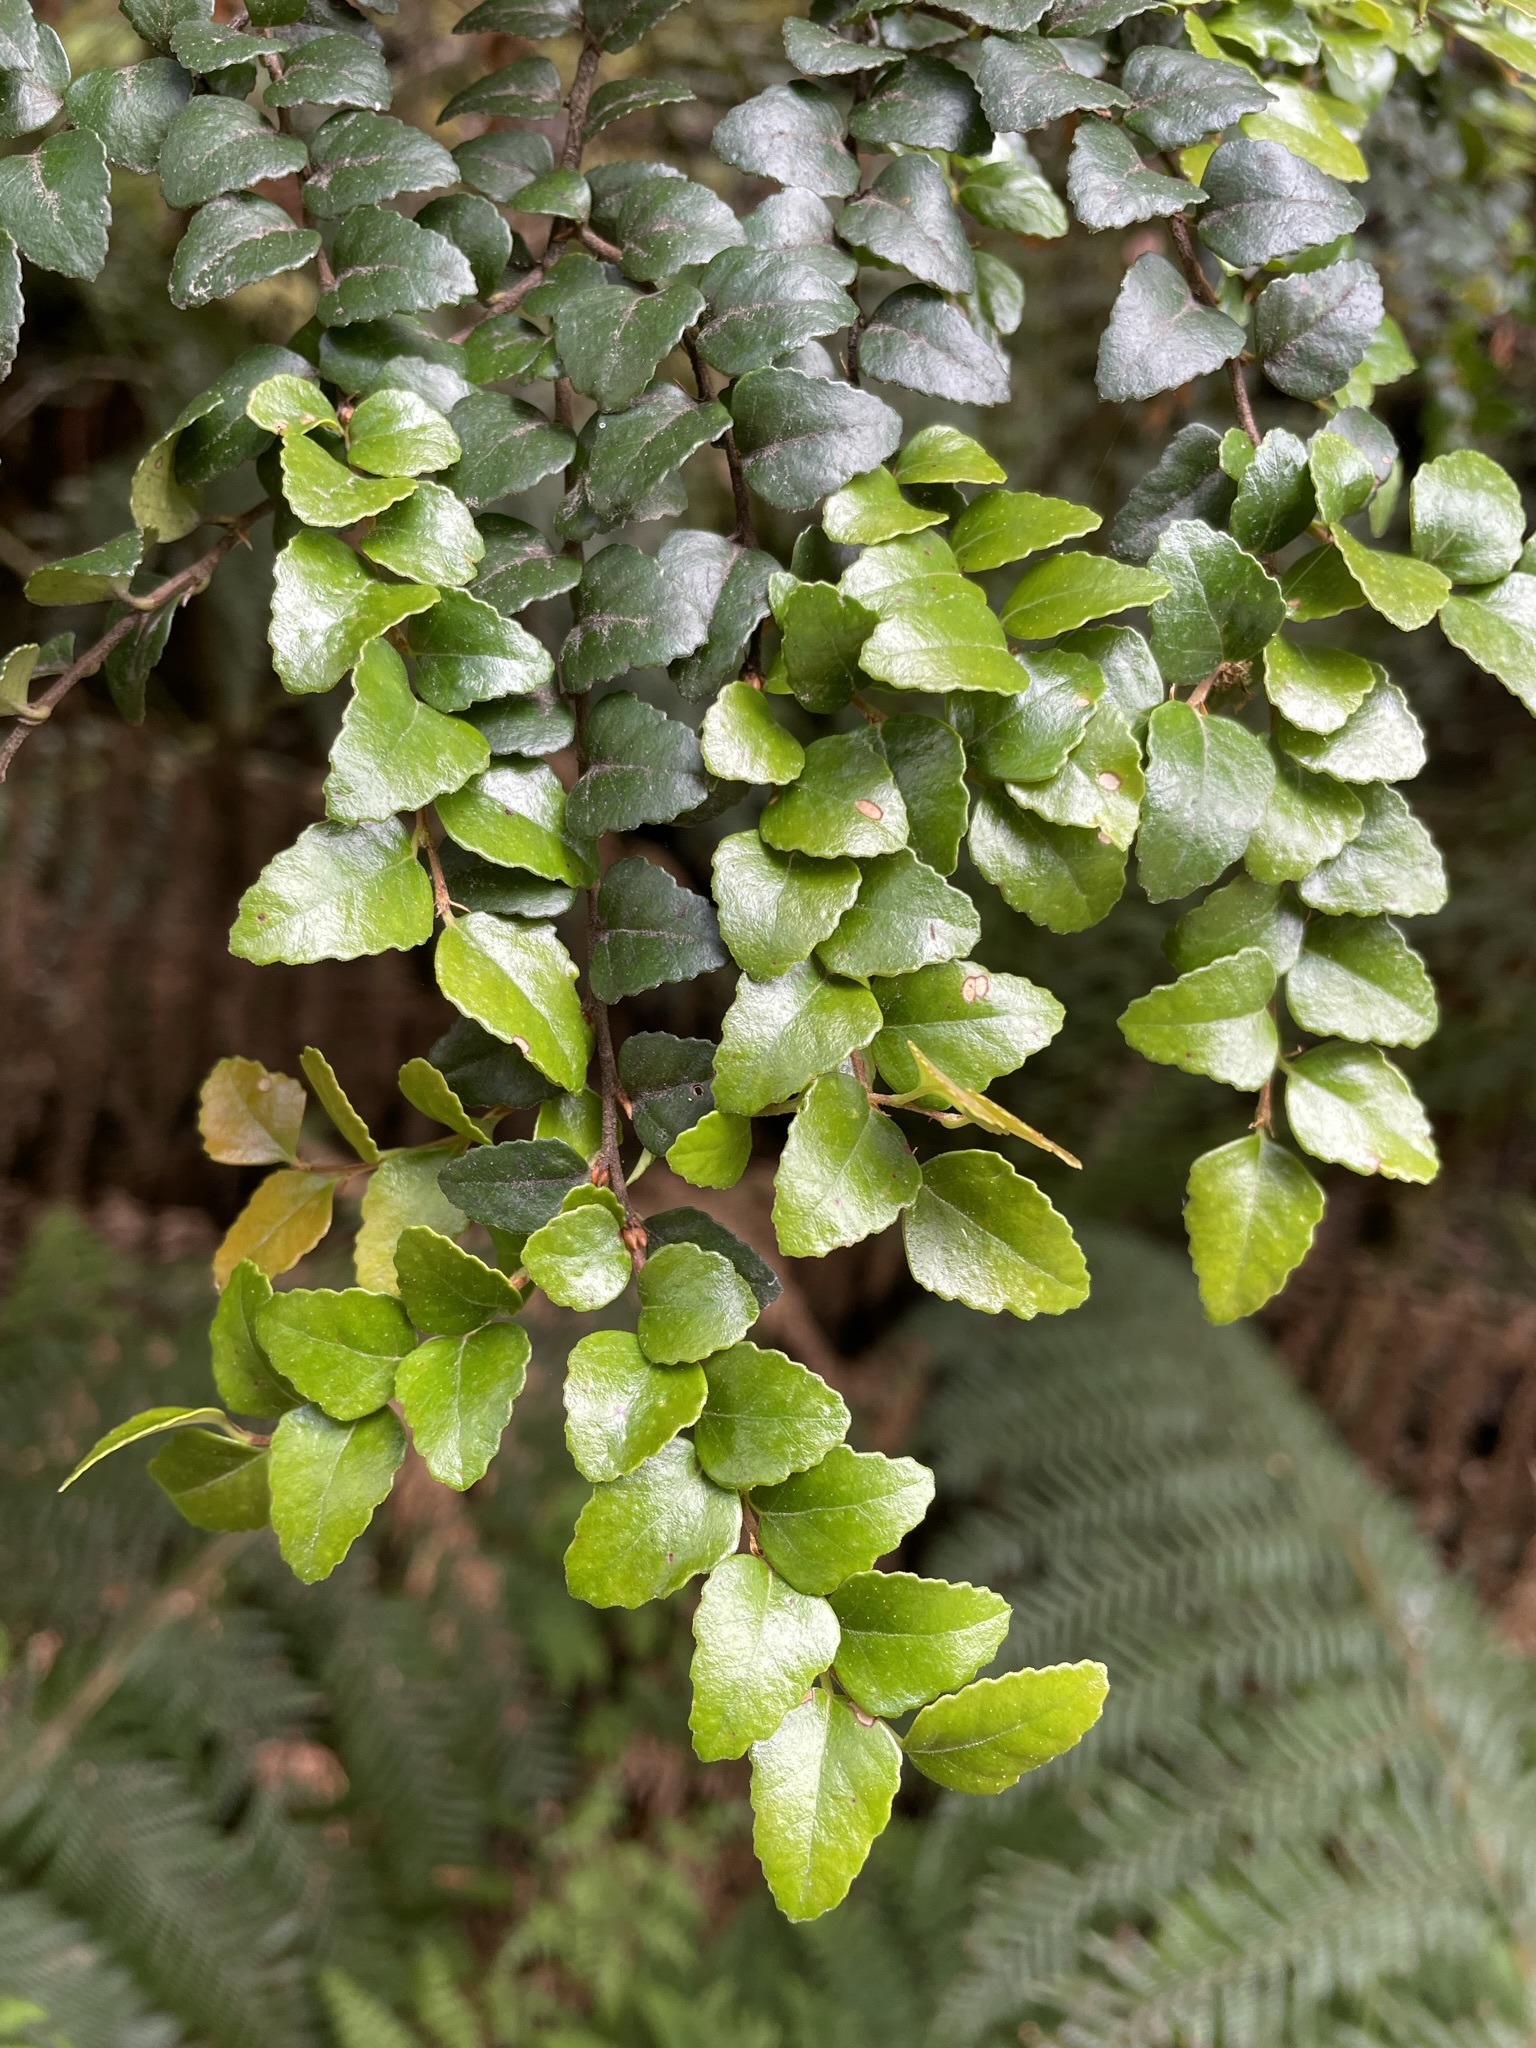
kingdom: Plantae
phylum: Tracheophyta
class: Magnoliopsida
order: Fagales
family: Nothofagaceae
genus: Nothofagus
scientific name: Nothofagus cunninghamii
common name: Myrtle beech
